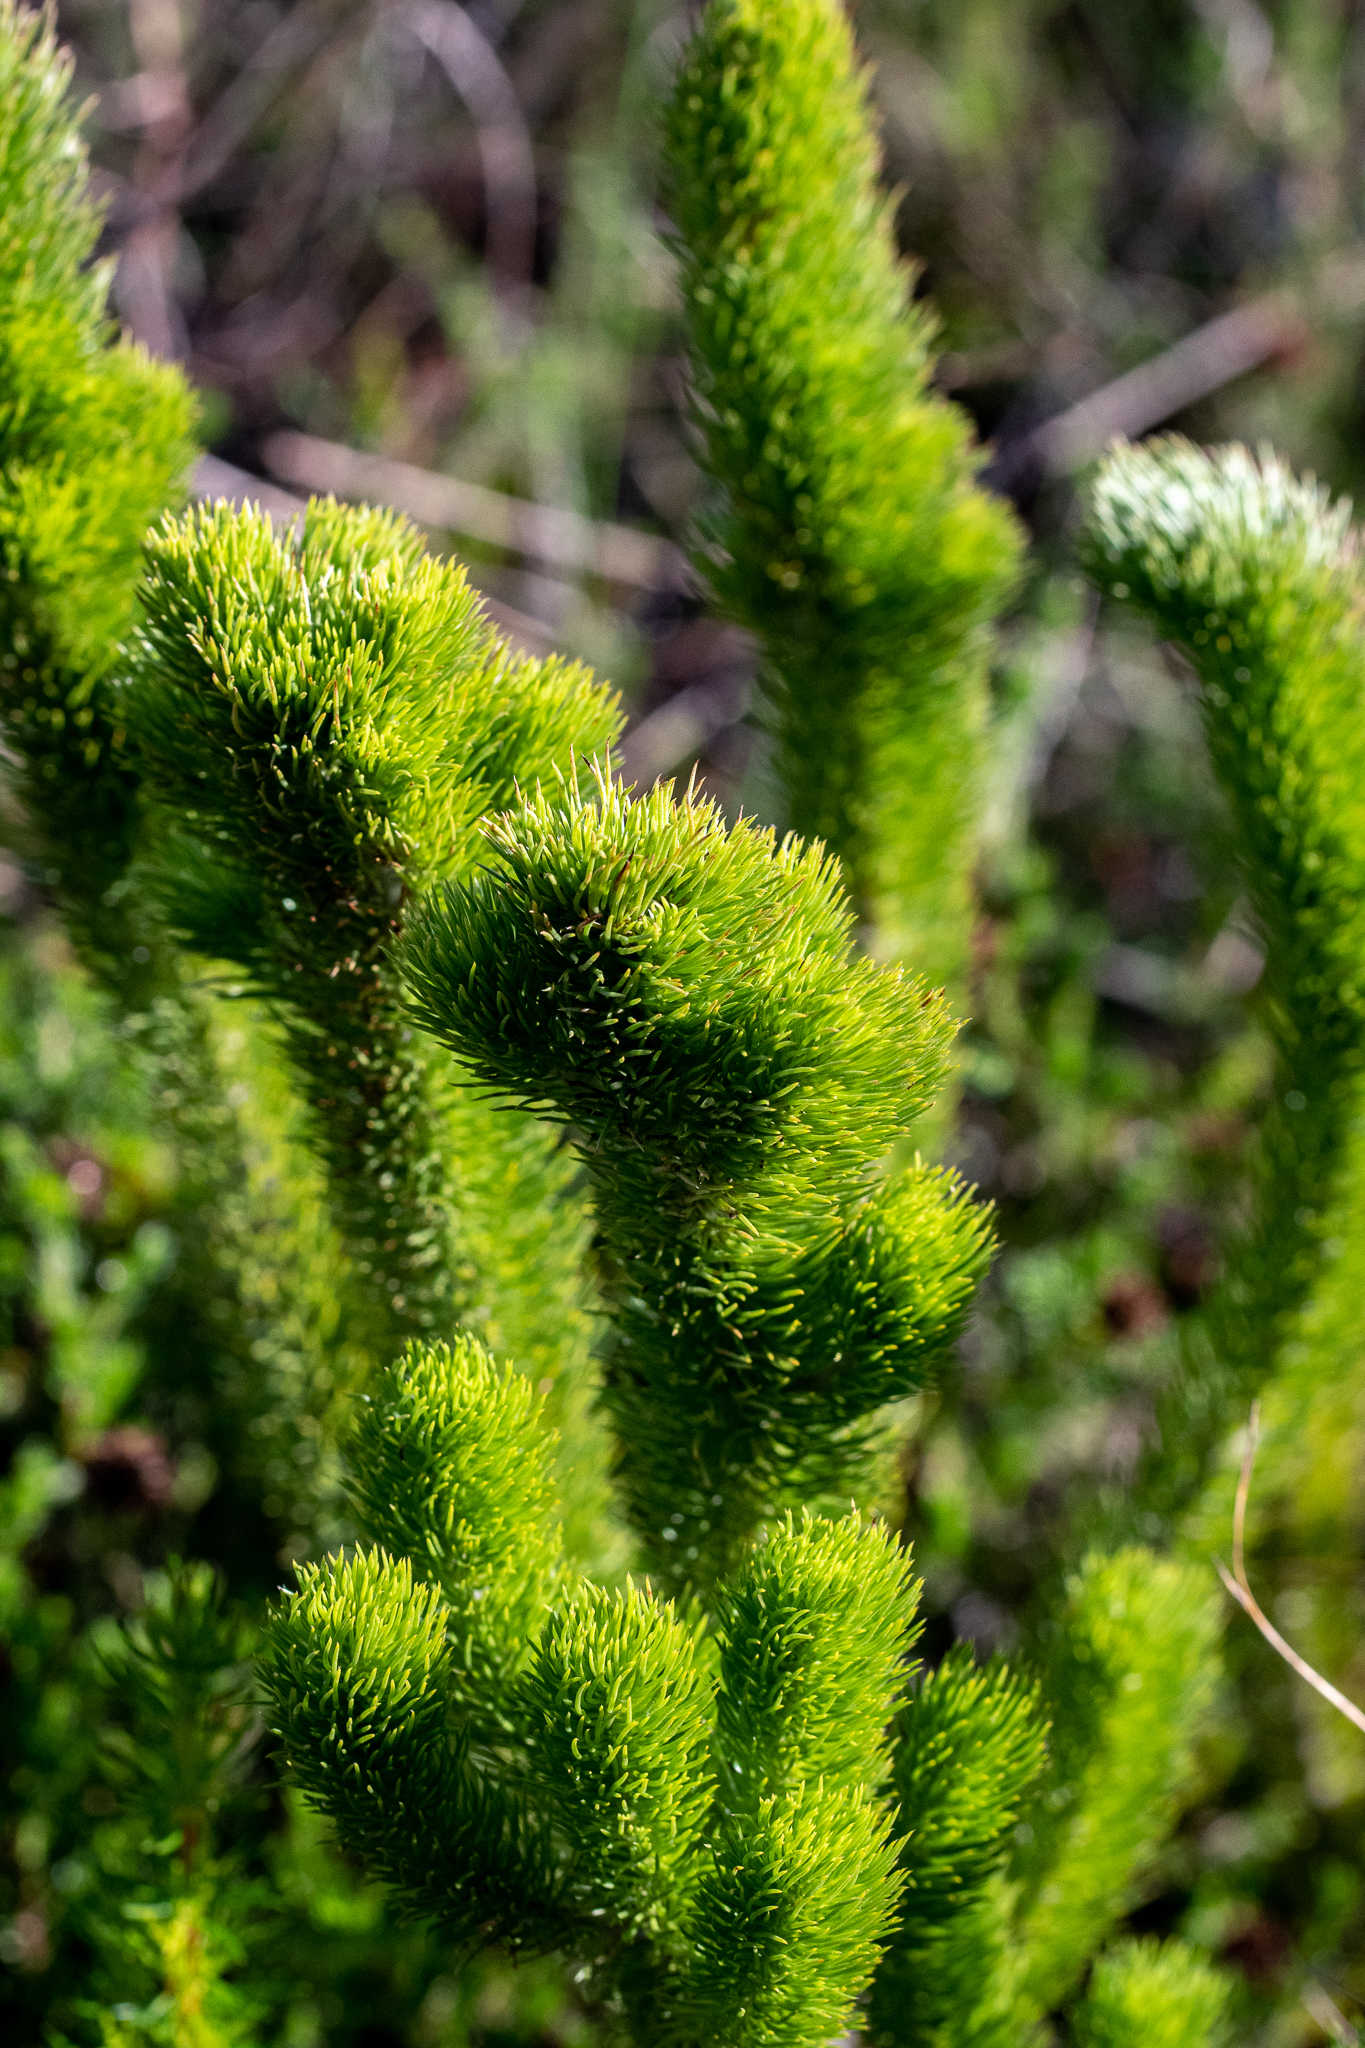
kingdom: Plantae
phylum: Tracheophyta
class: Magnoliopsida
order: Fabales
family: Fabaceae
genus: Aspalathus
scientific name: Aspalathus incurvifolia
